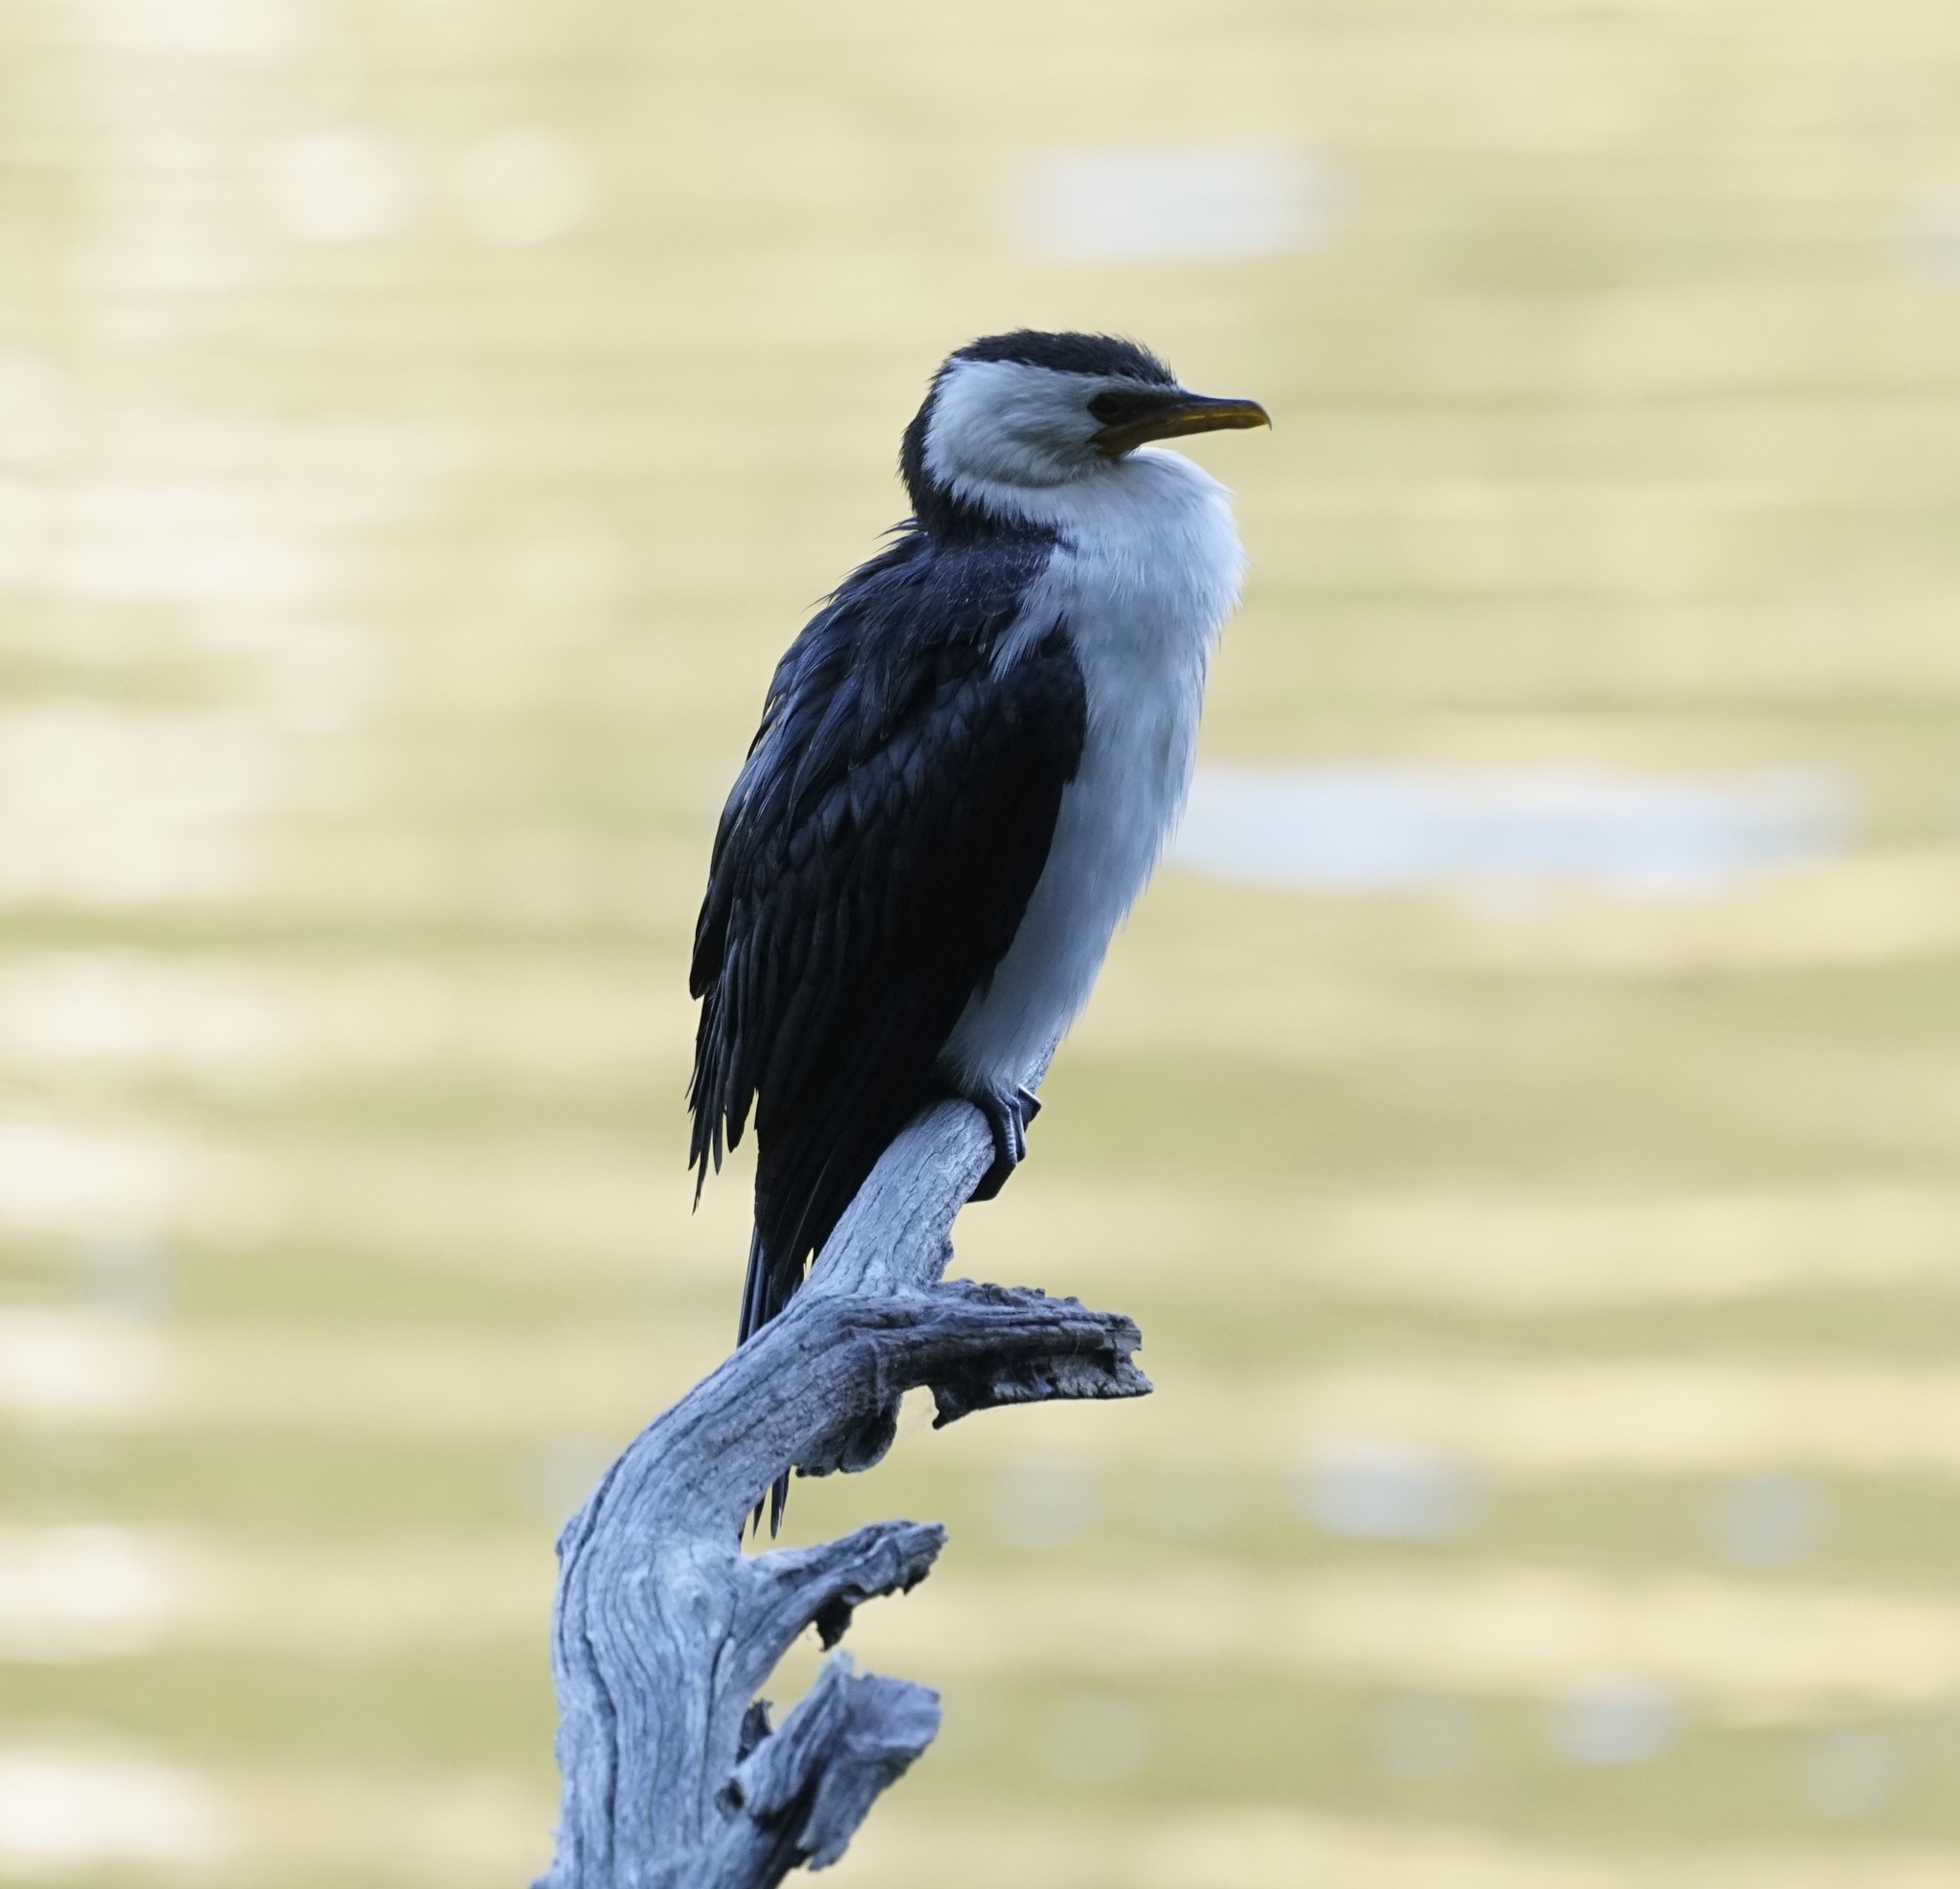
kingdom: Animalia
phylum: Chordata
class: Aves
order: Suliformes
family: Phalacrocoracidae
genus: Microcarbo
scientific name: Microcarbo melanoleucos
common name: Little pied cormorant
